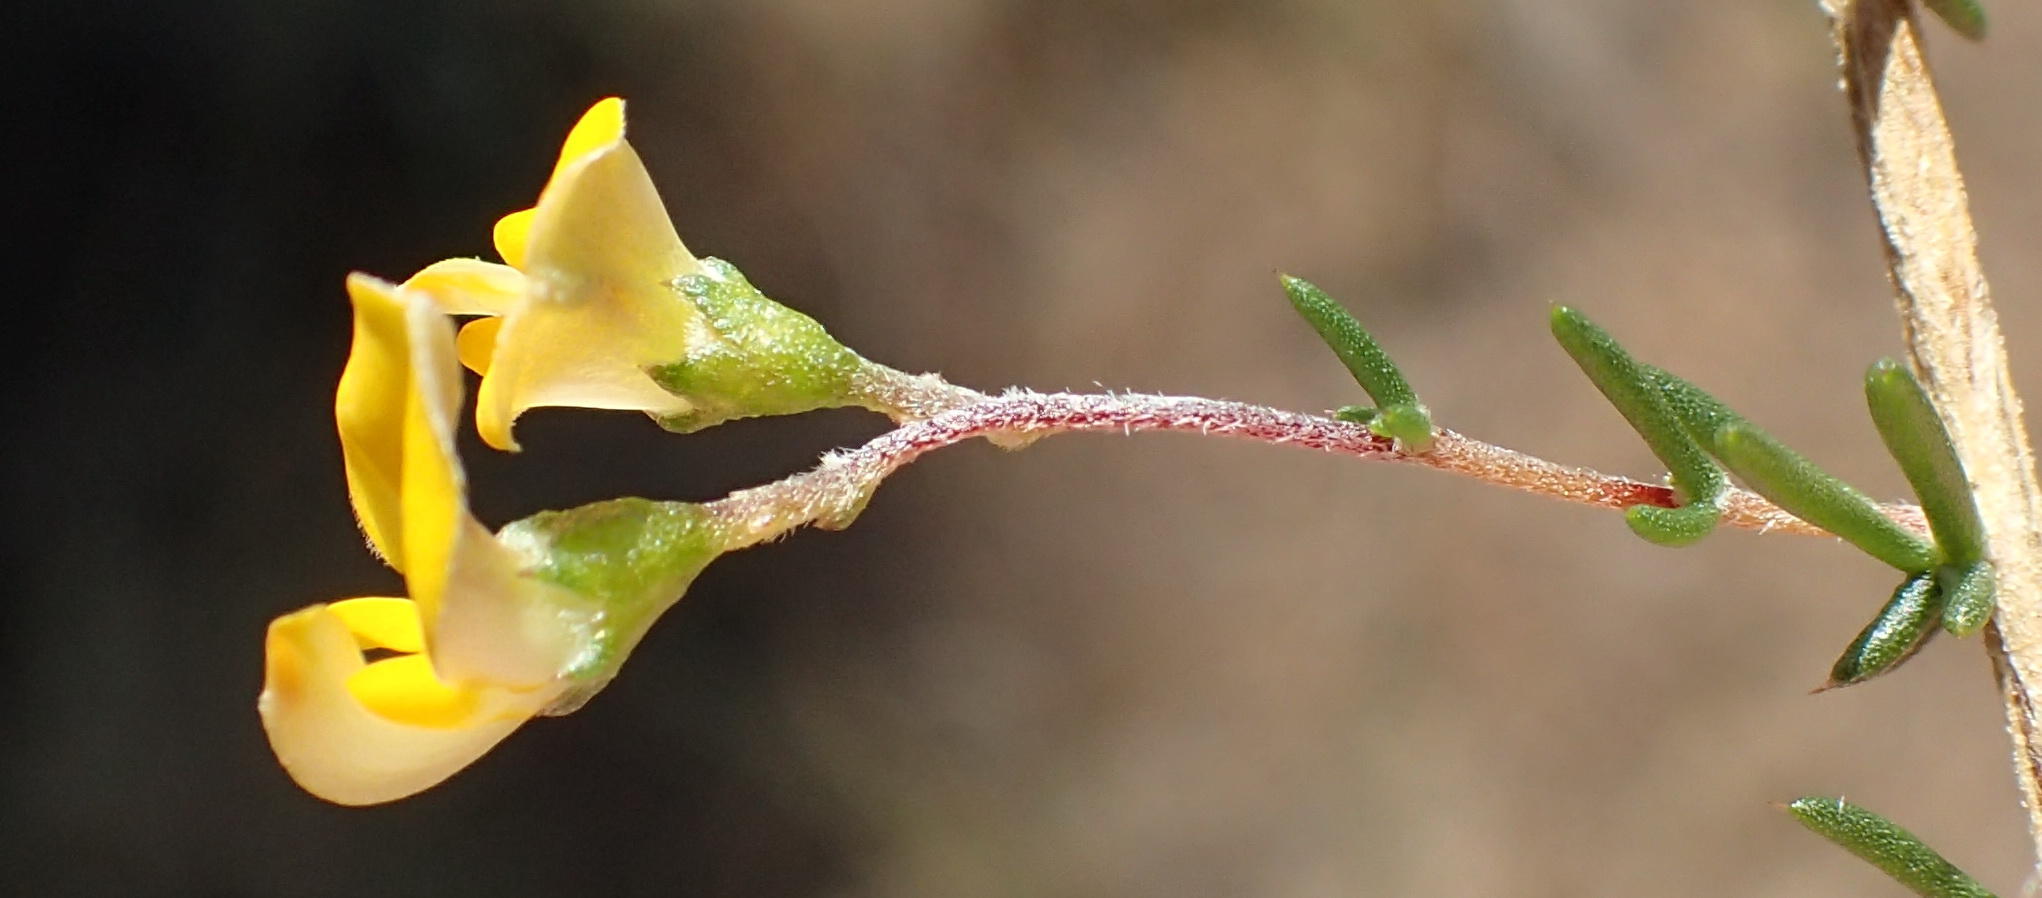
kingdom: Plantae
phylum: Tracheophyta
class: Magnoliopsida
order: Fabales
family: Fabaceae
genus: Aspalathus
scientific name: Aspalathus biflora
